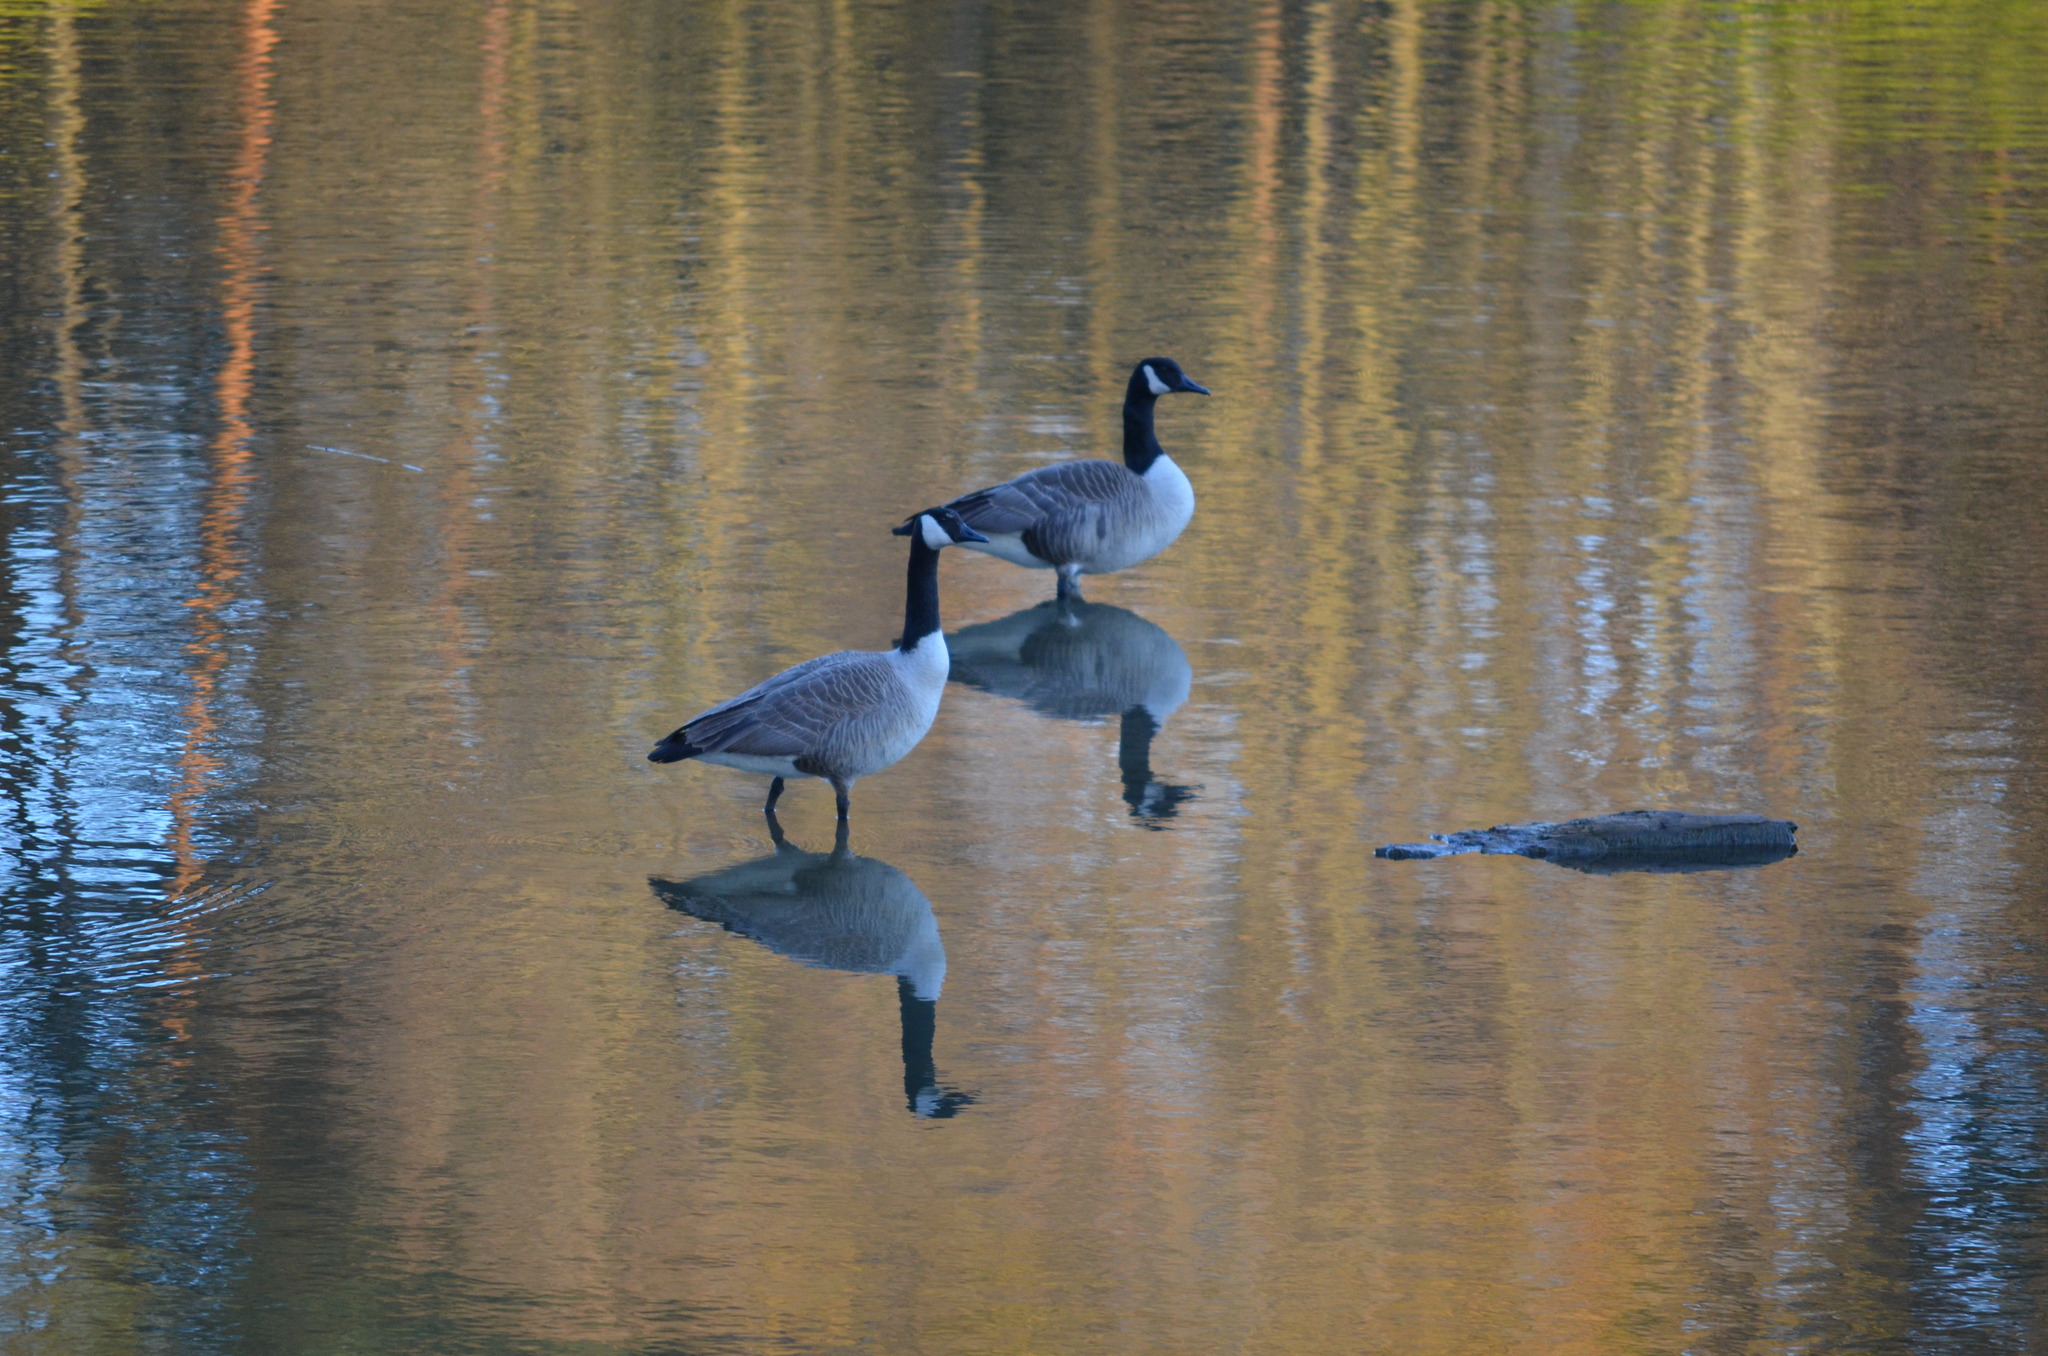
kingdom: Animalia
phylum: Chordata
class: Aves
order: Anseriformes
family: Anatidae
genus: Branta
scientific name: Branta canadensis
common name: Canada goose
